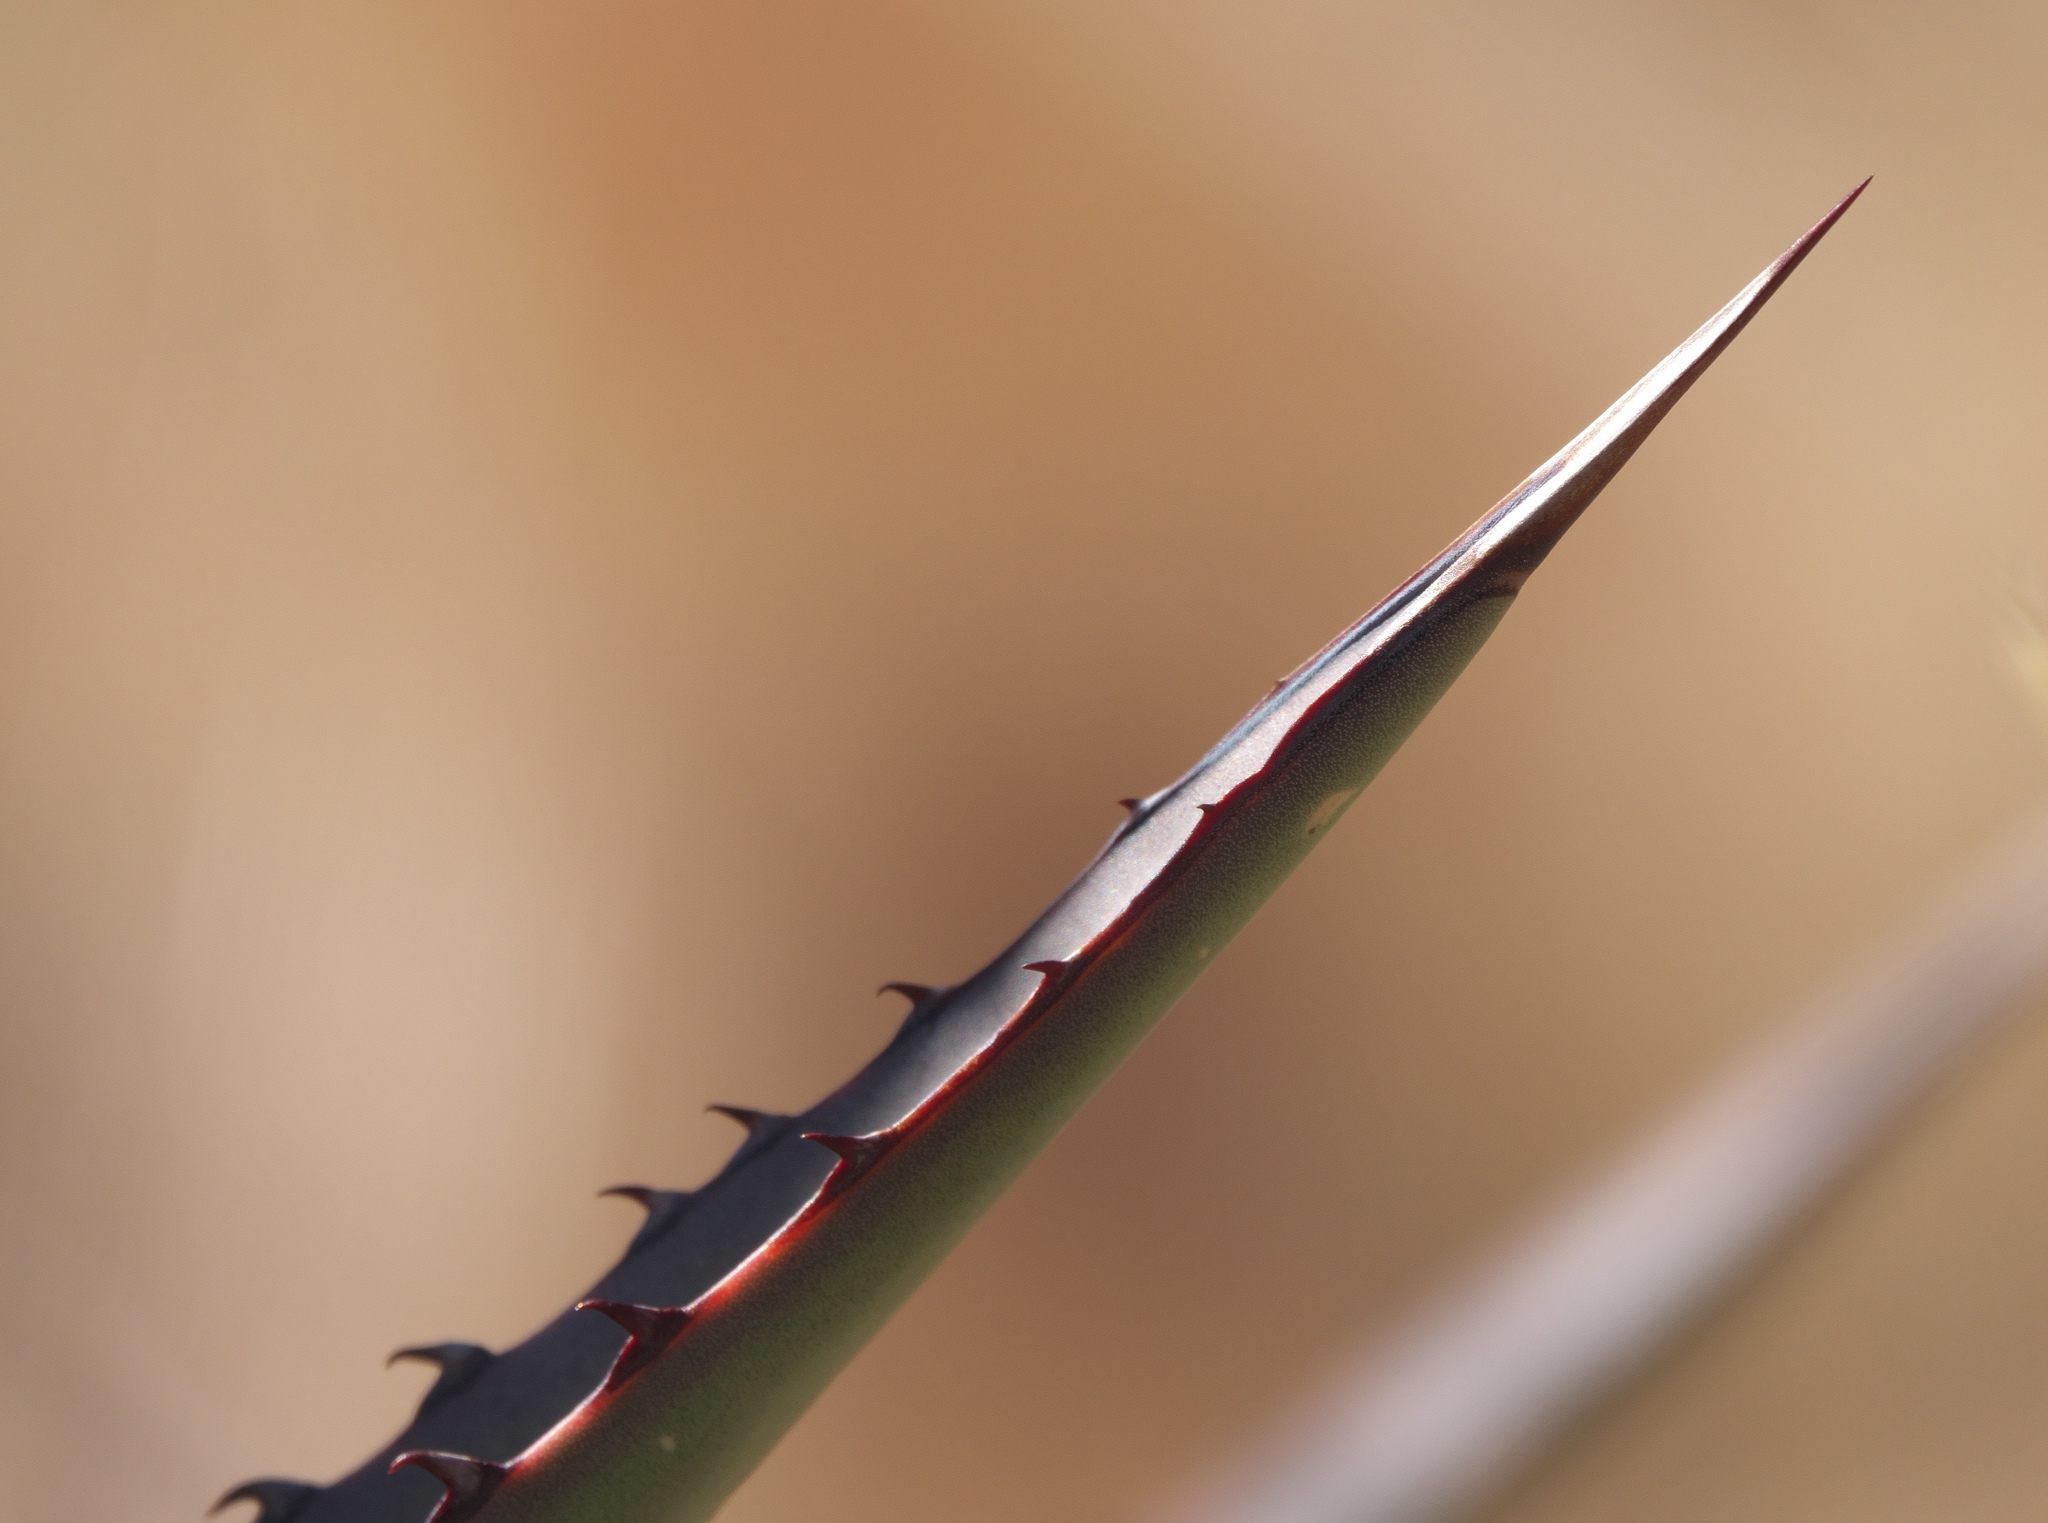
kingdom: Plantae
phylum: Tracheophyta
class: Liliopsida
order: Asparagales
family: Asparagaceae
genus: Agave
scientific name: Agave palmeri
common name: Palmer agave
